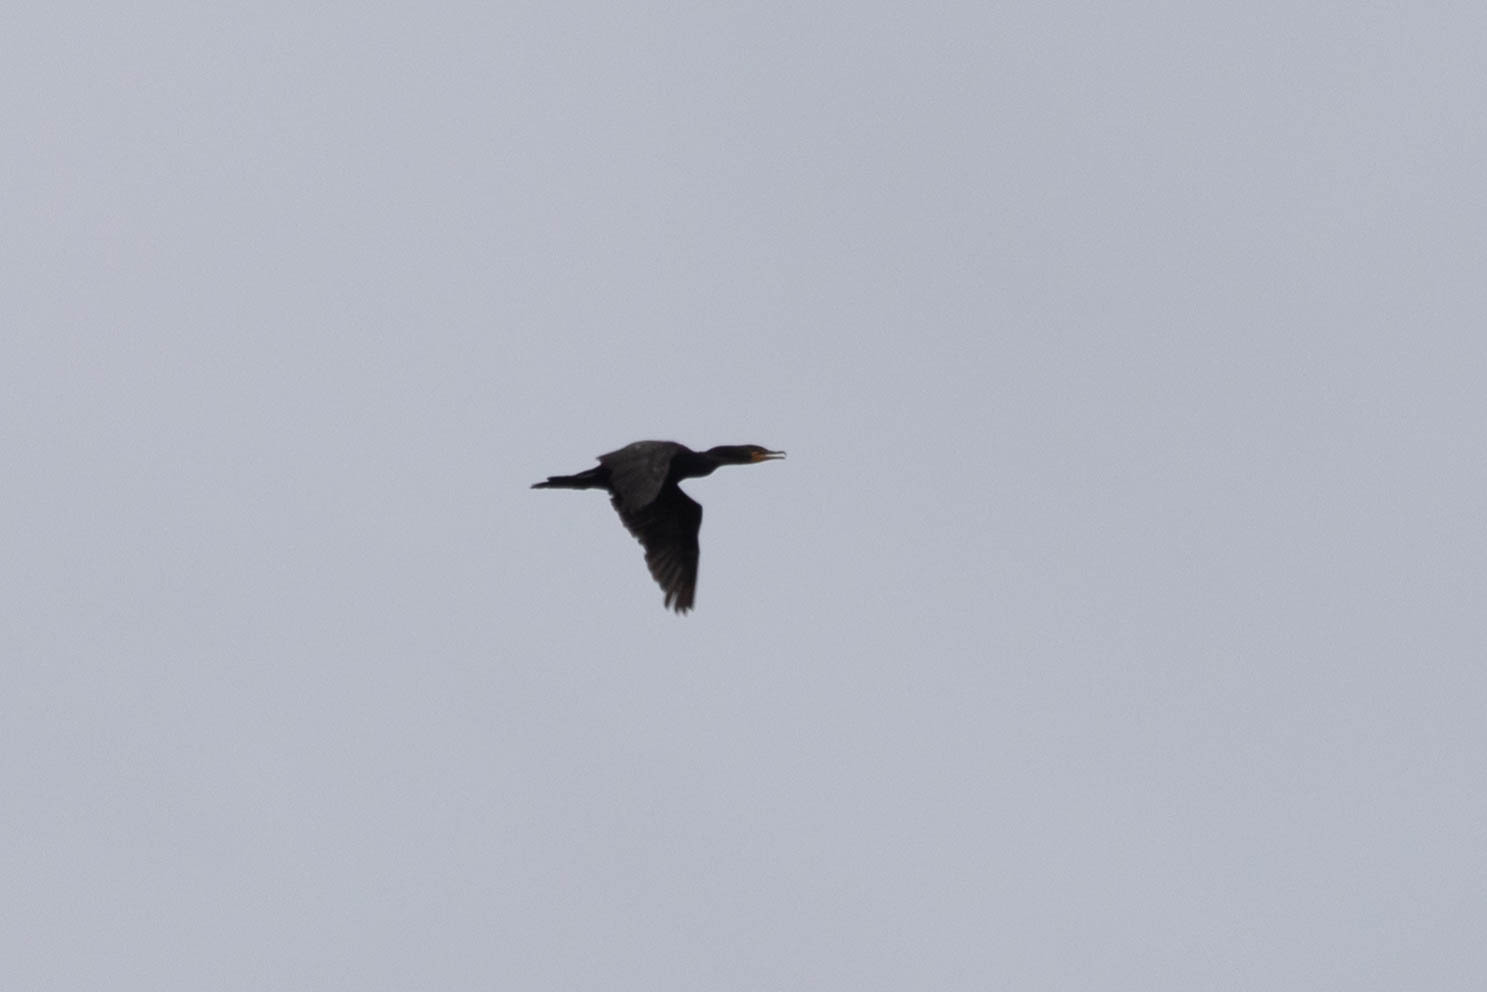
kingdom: Animalia
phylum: Chordata
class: Aves
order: Suliformes
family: Phalacrocoracidae
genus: Phalacrocorax
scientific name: Phalacrocorax auritus
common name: Double-crested cormorant
